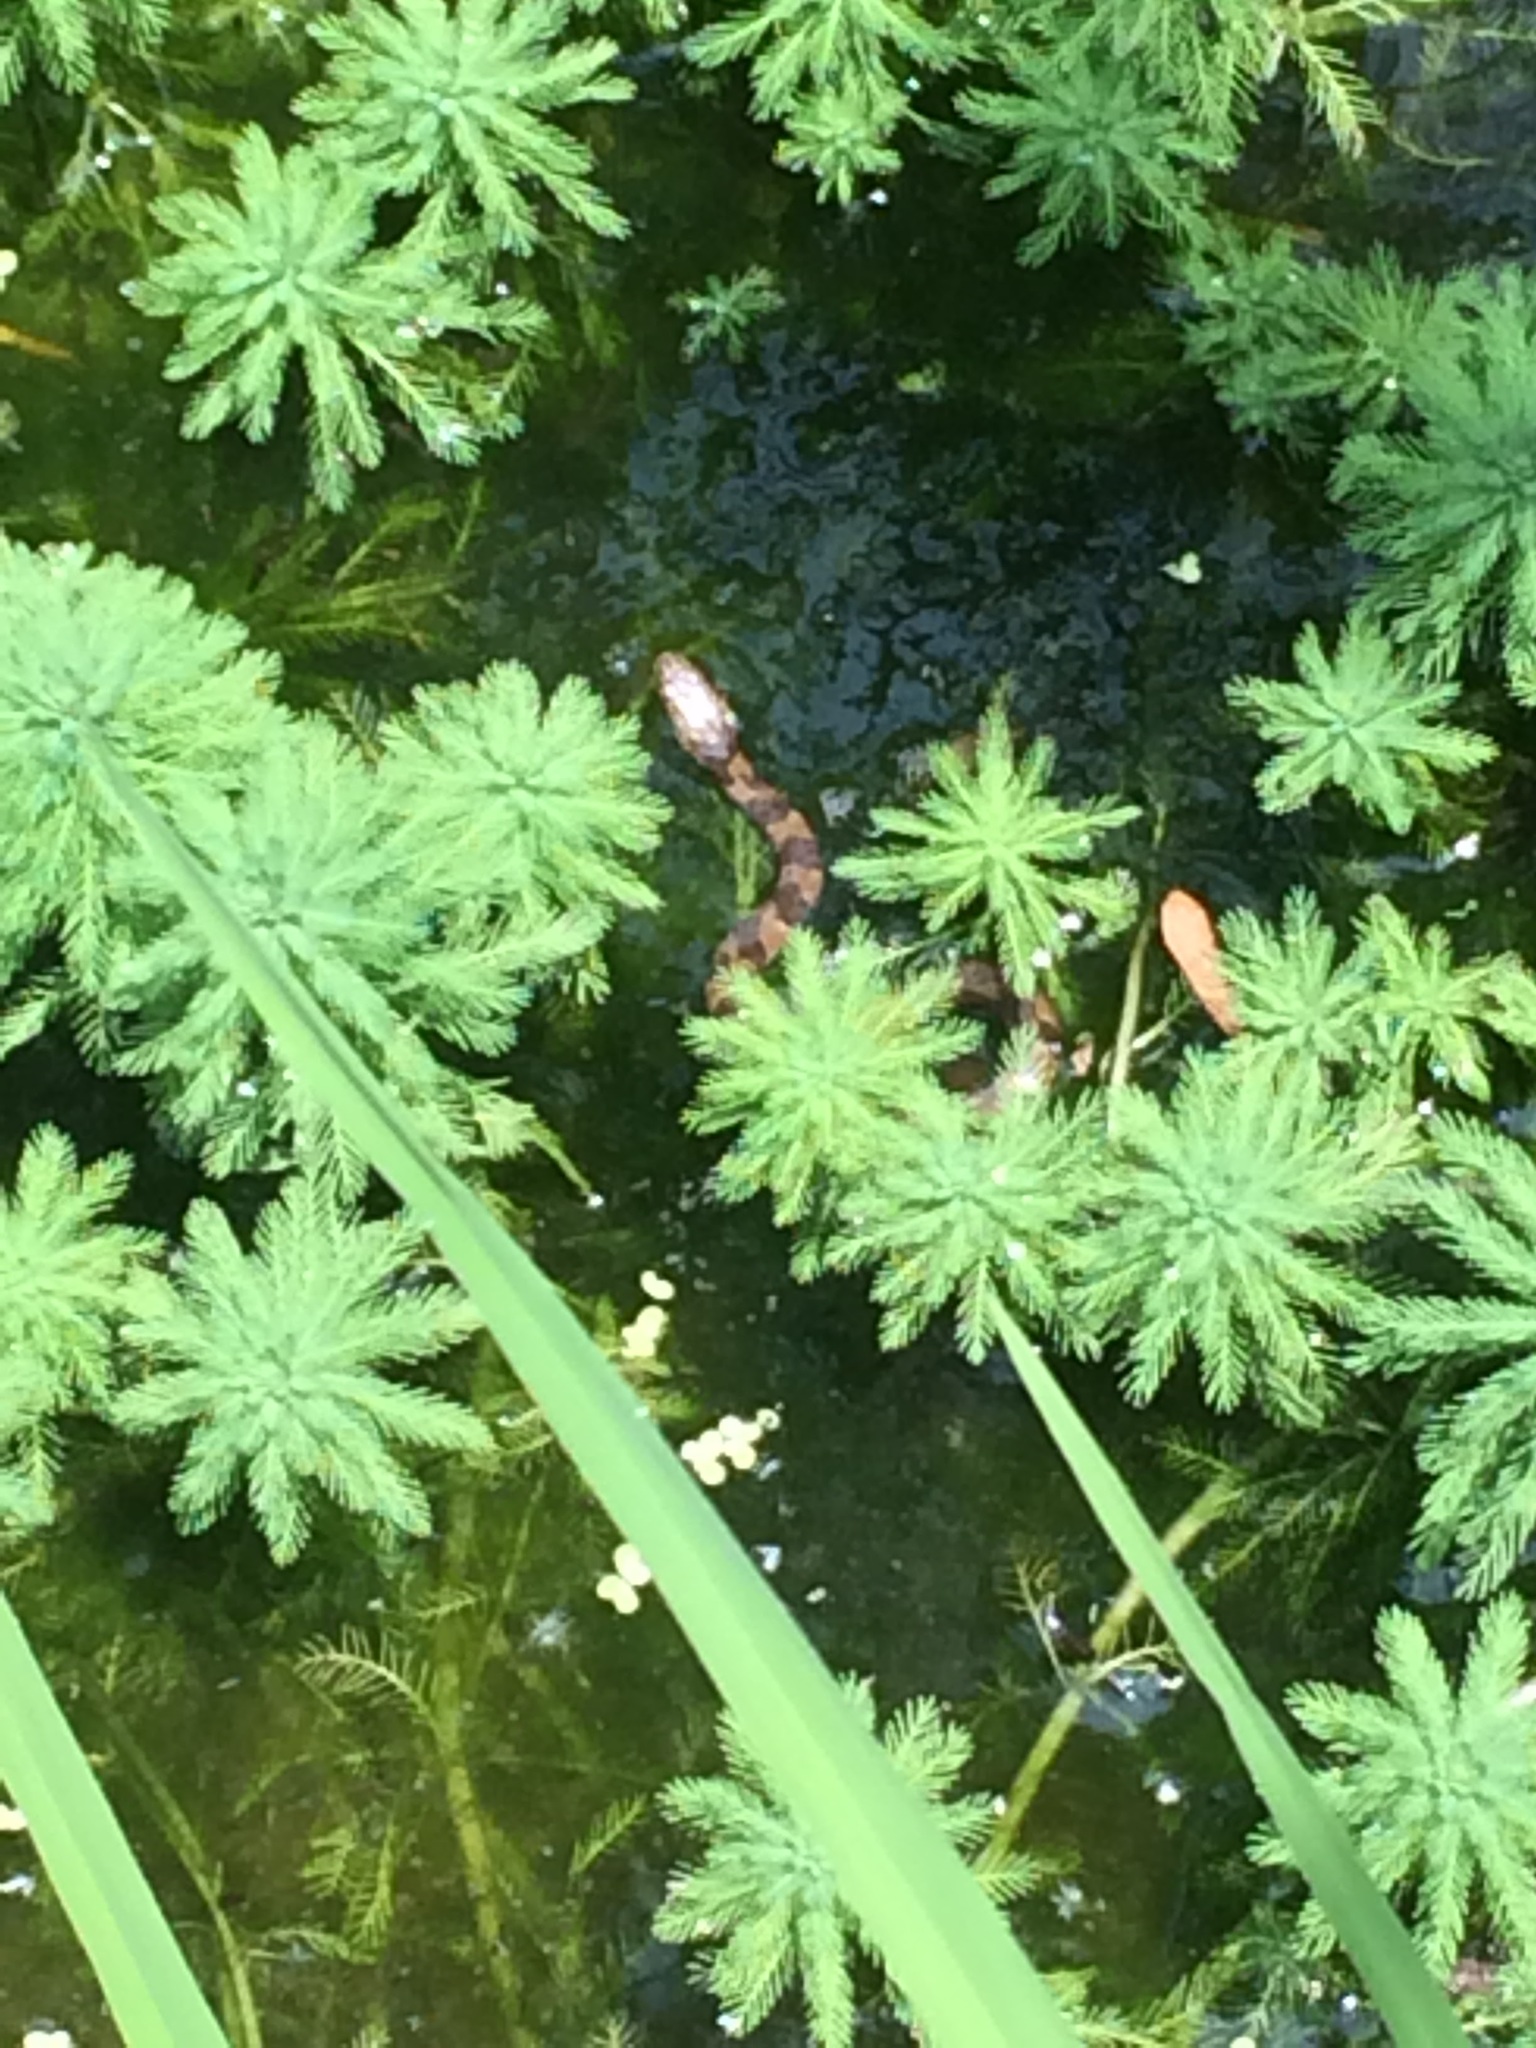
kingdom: Animalia
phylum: Chordata
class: Squamata
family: Colubridae
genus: Nerodia
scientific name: Nerodia
